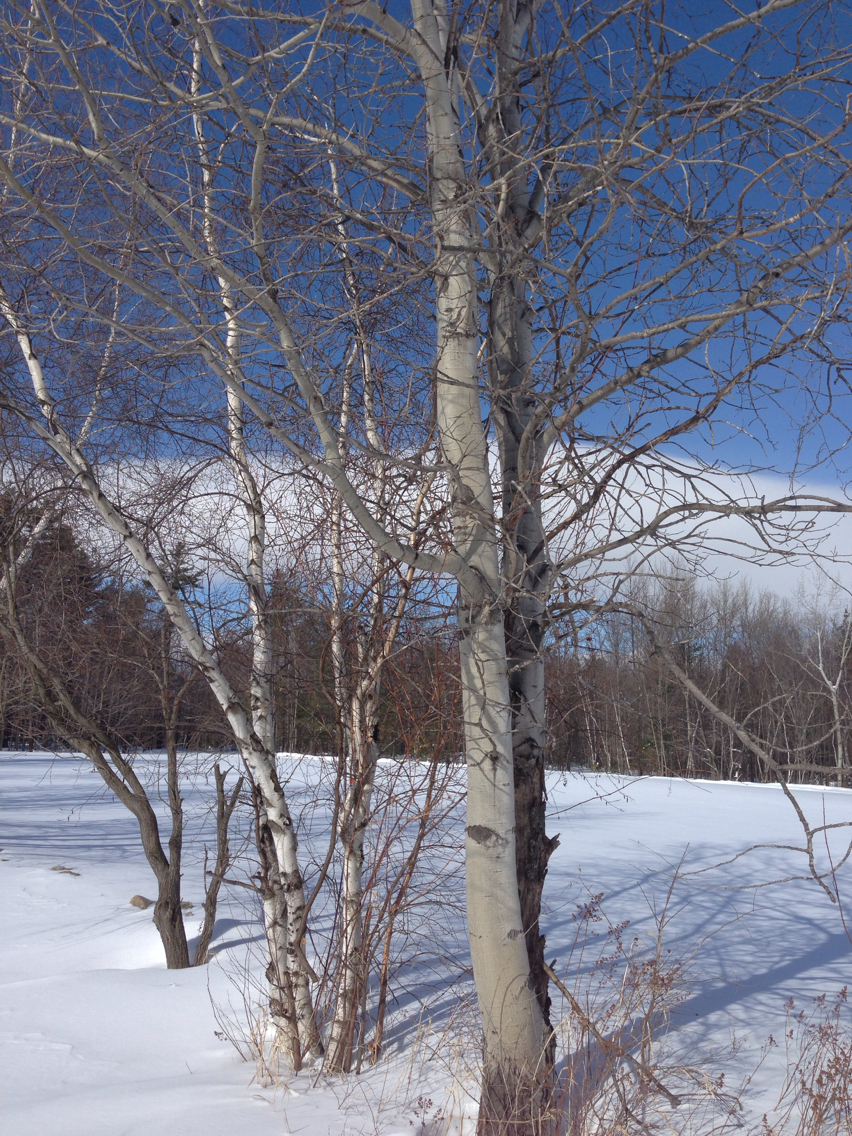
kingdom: Plantae
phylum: Tracheophyta
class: Magnoliopsida
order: Malpighiales
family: Salicaceae
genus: Populus
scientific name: Populus tremuloides
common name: Quaking aspen
